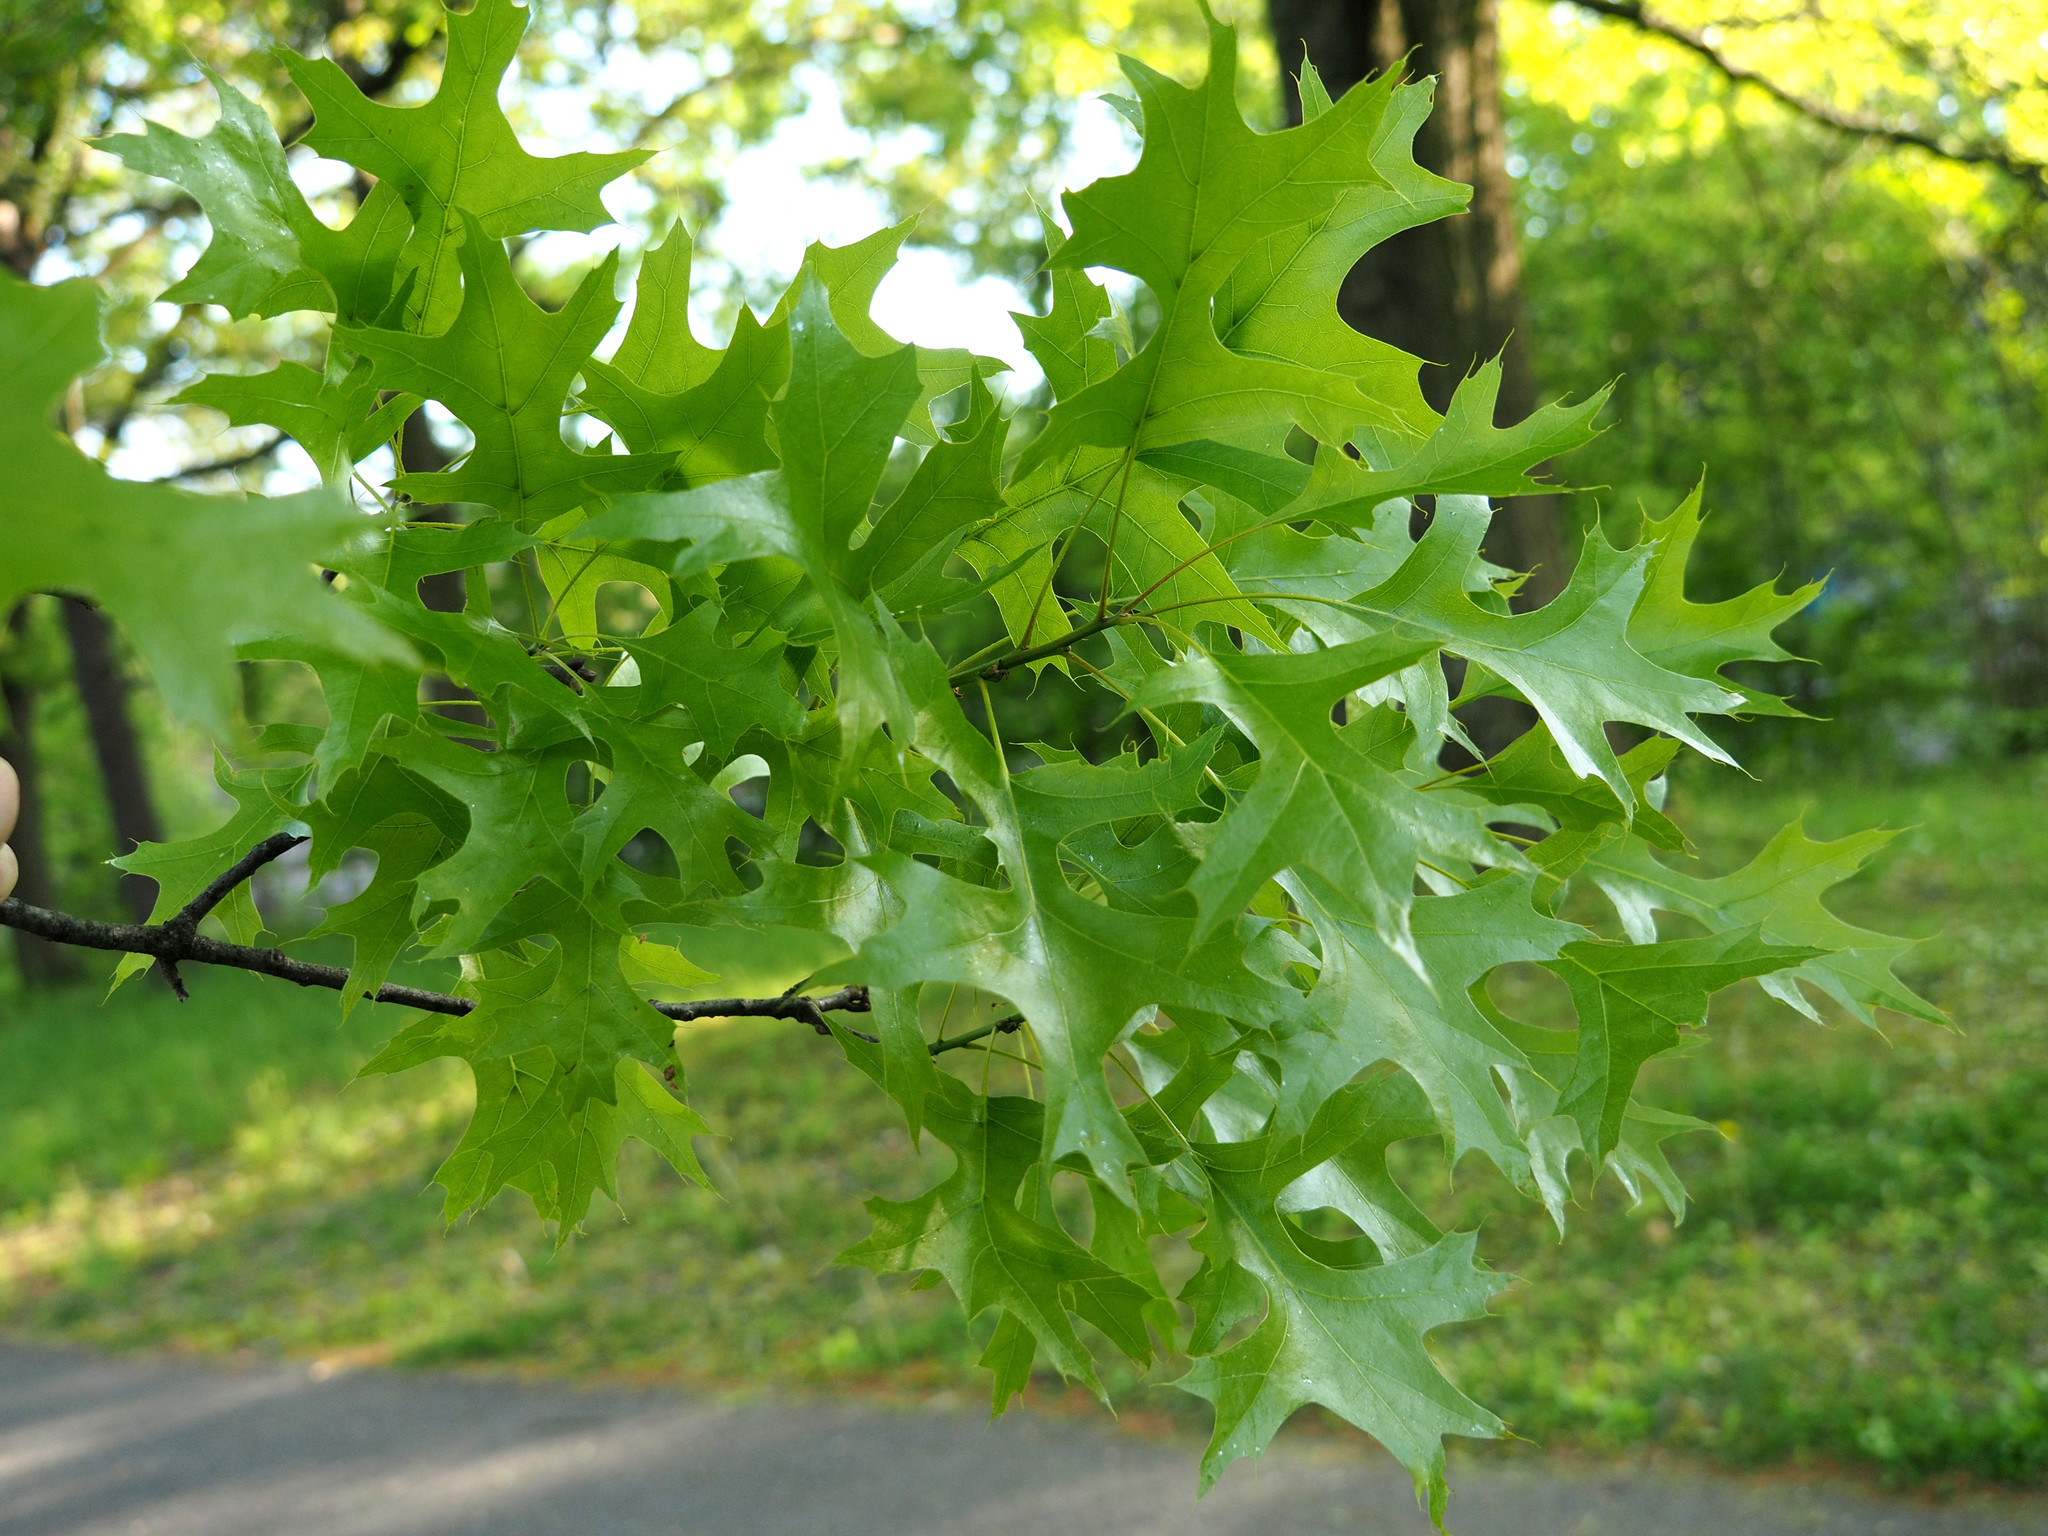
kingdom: Plantae
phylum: Tracheophyta
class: Magnoliopsida
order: Fagales
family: Fagaceae
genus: Quercus
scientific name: Quercus palustris
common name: Pin oak
